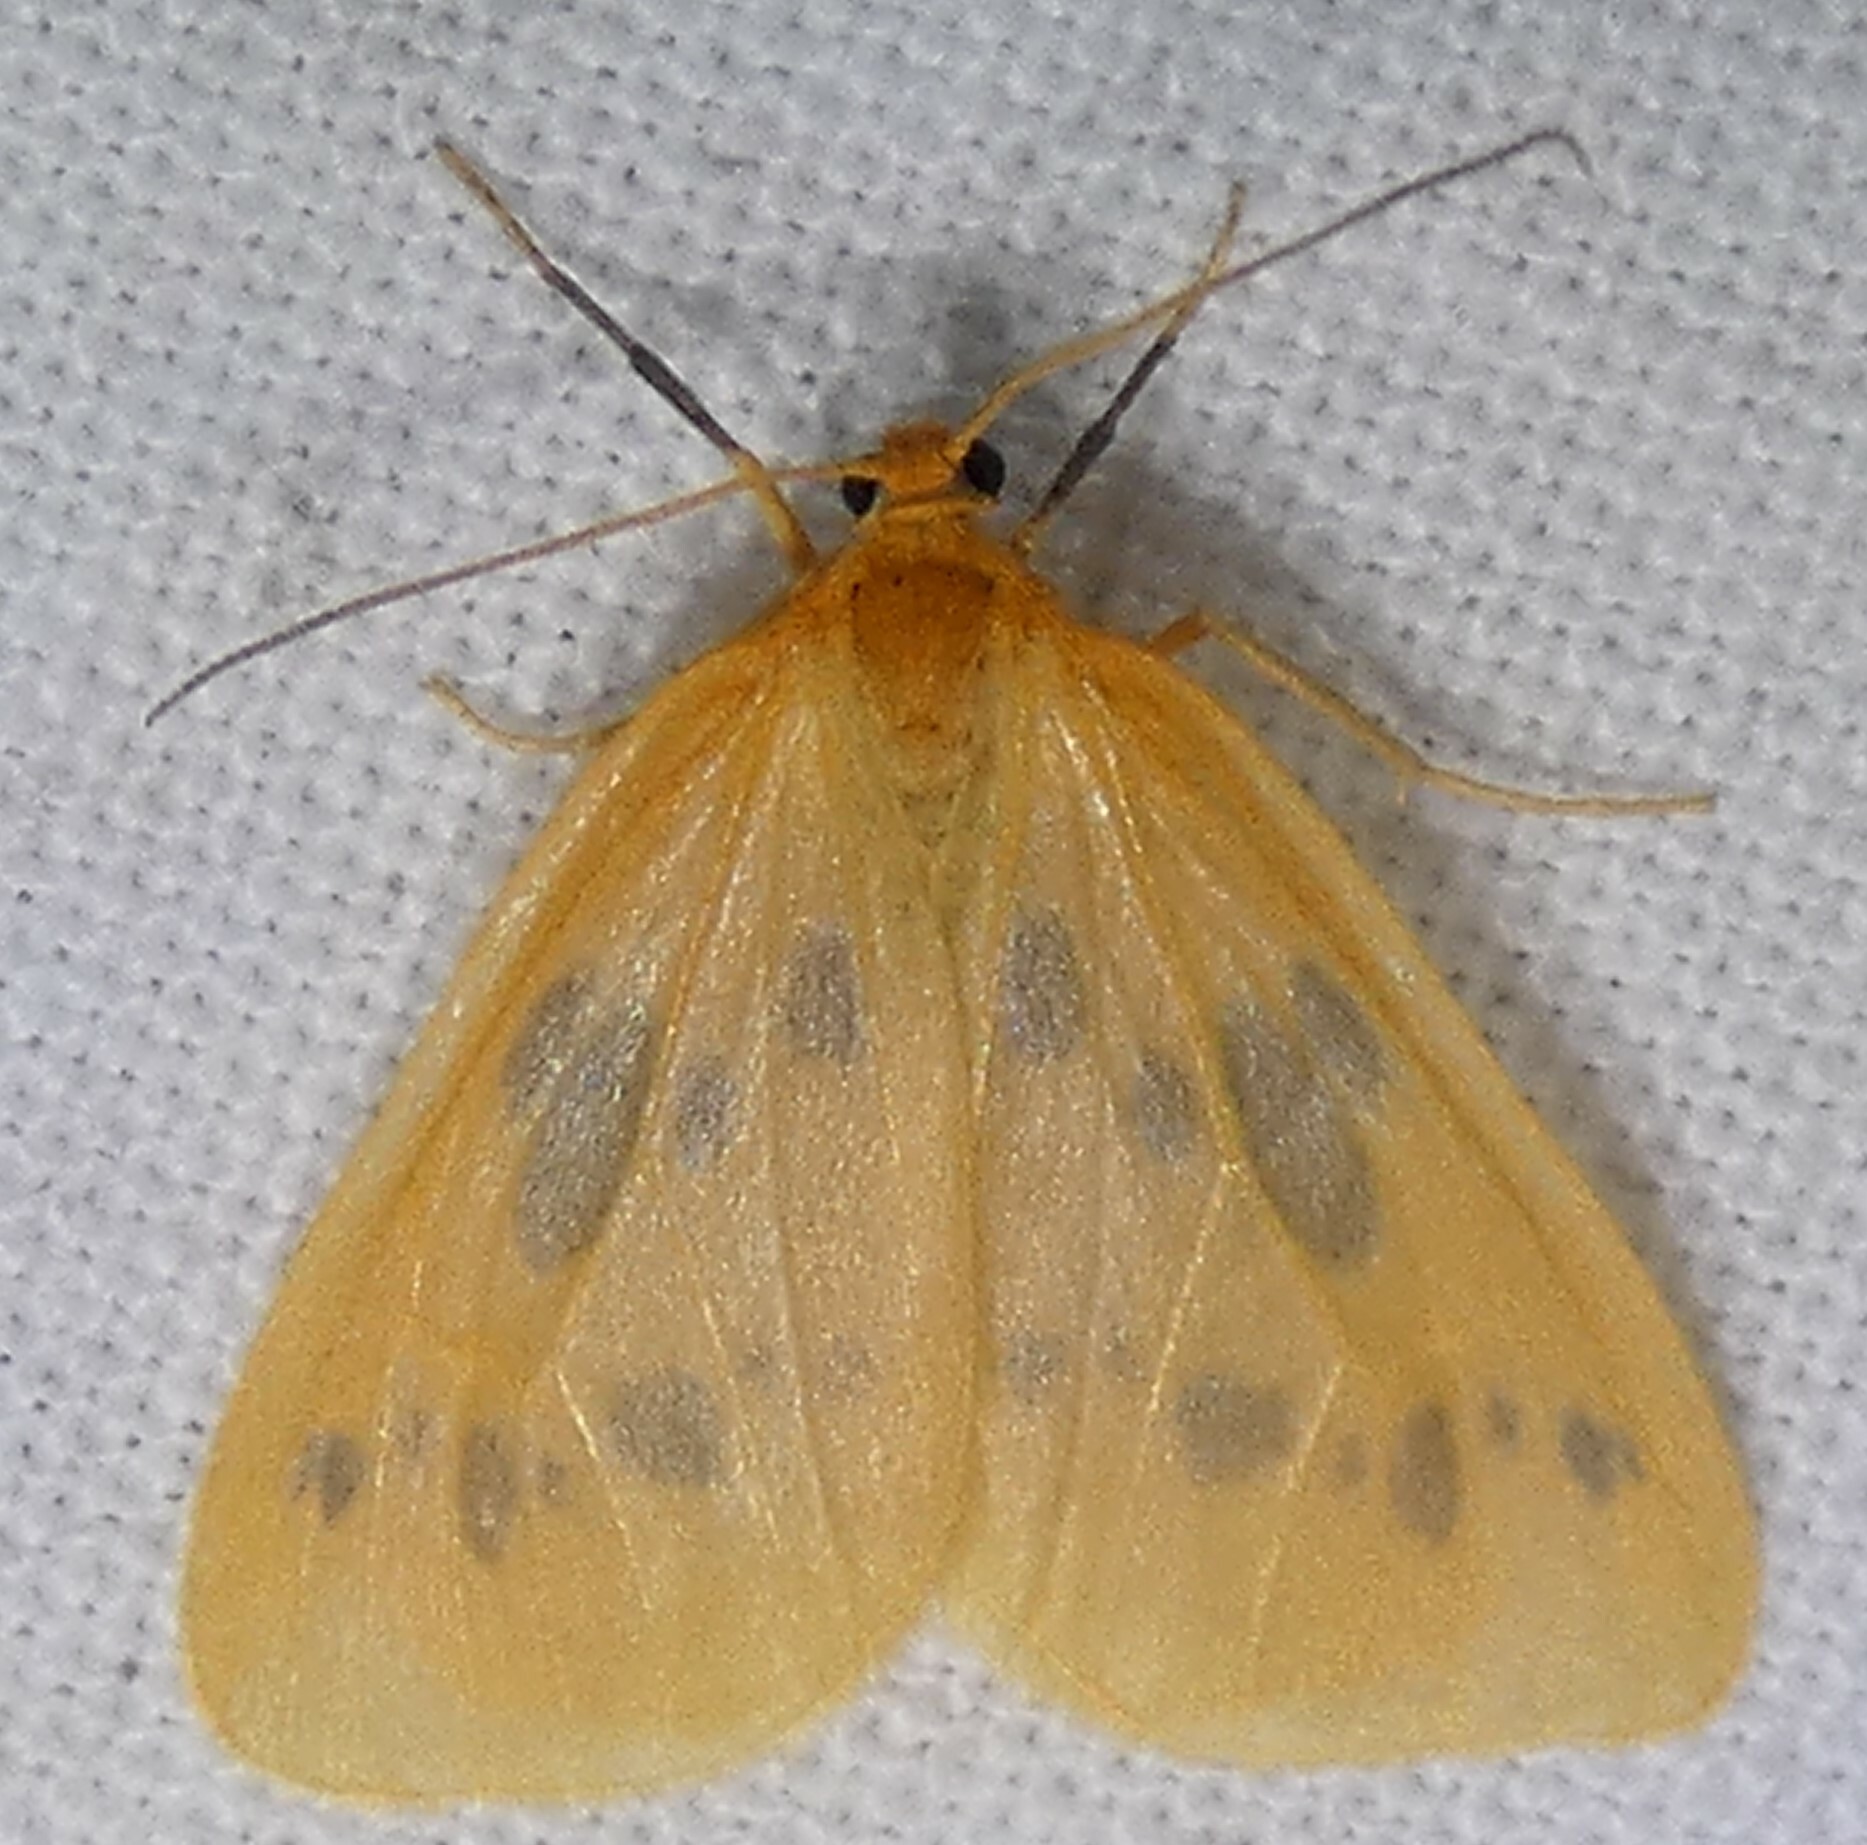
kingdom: Animalia
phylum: Arthropoda
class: Insecta
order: Lepidoptera
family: Geometridae
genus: Eubaphe
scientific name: Eubaphe meridiana
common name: Little beggar
